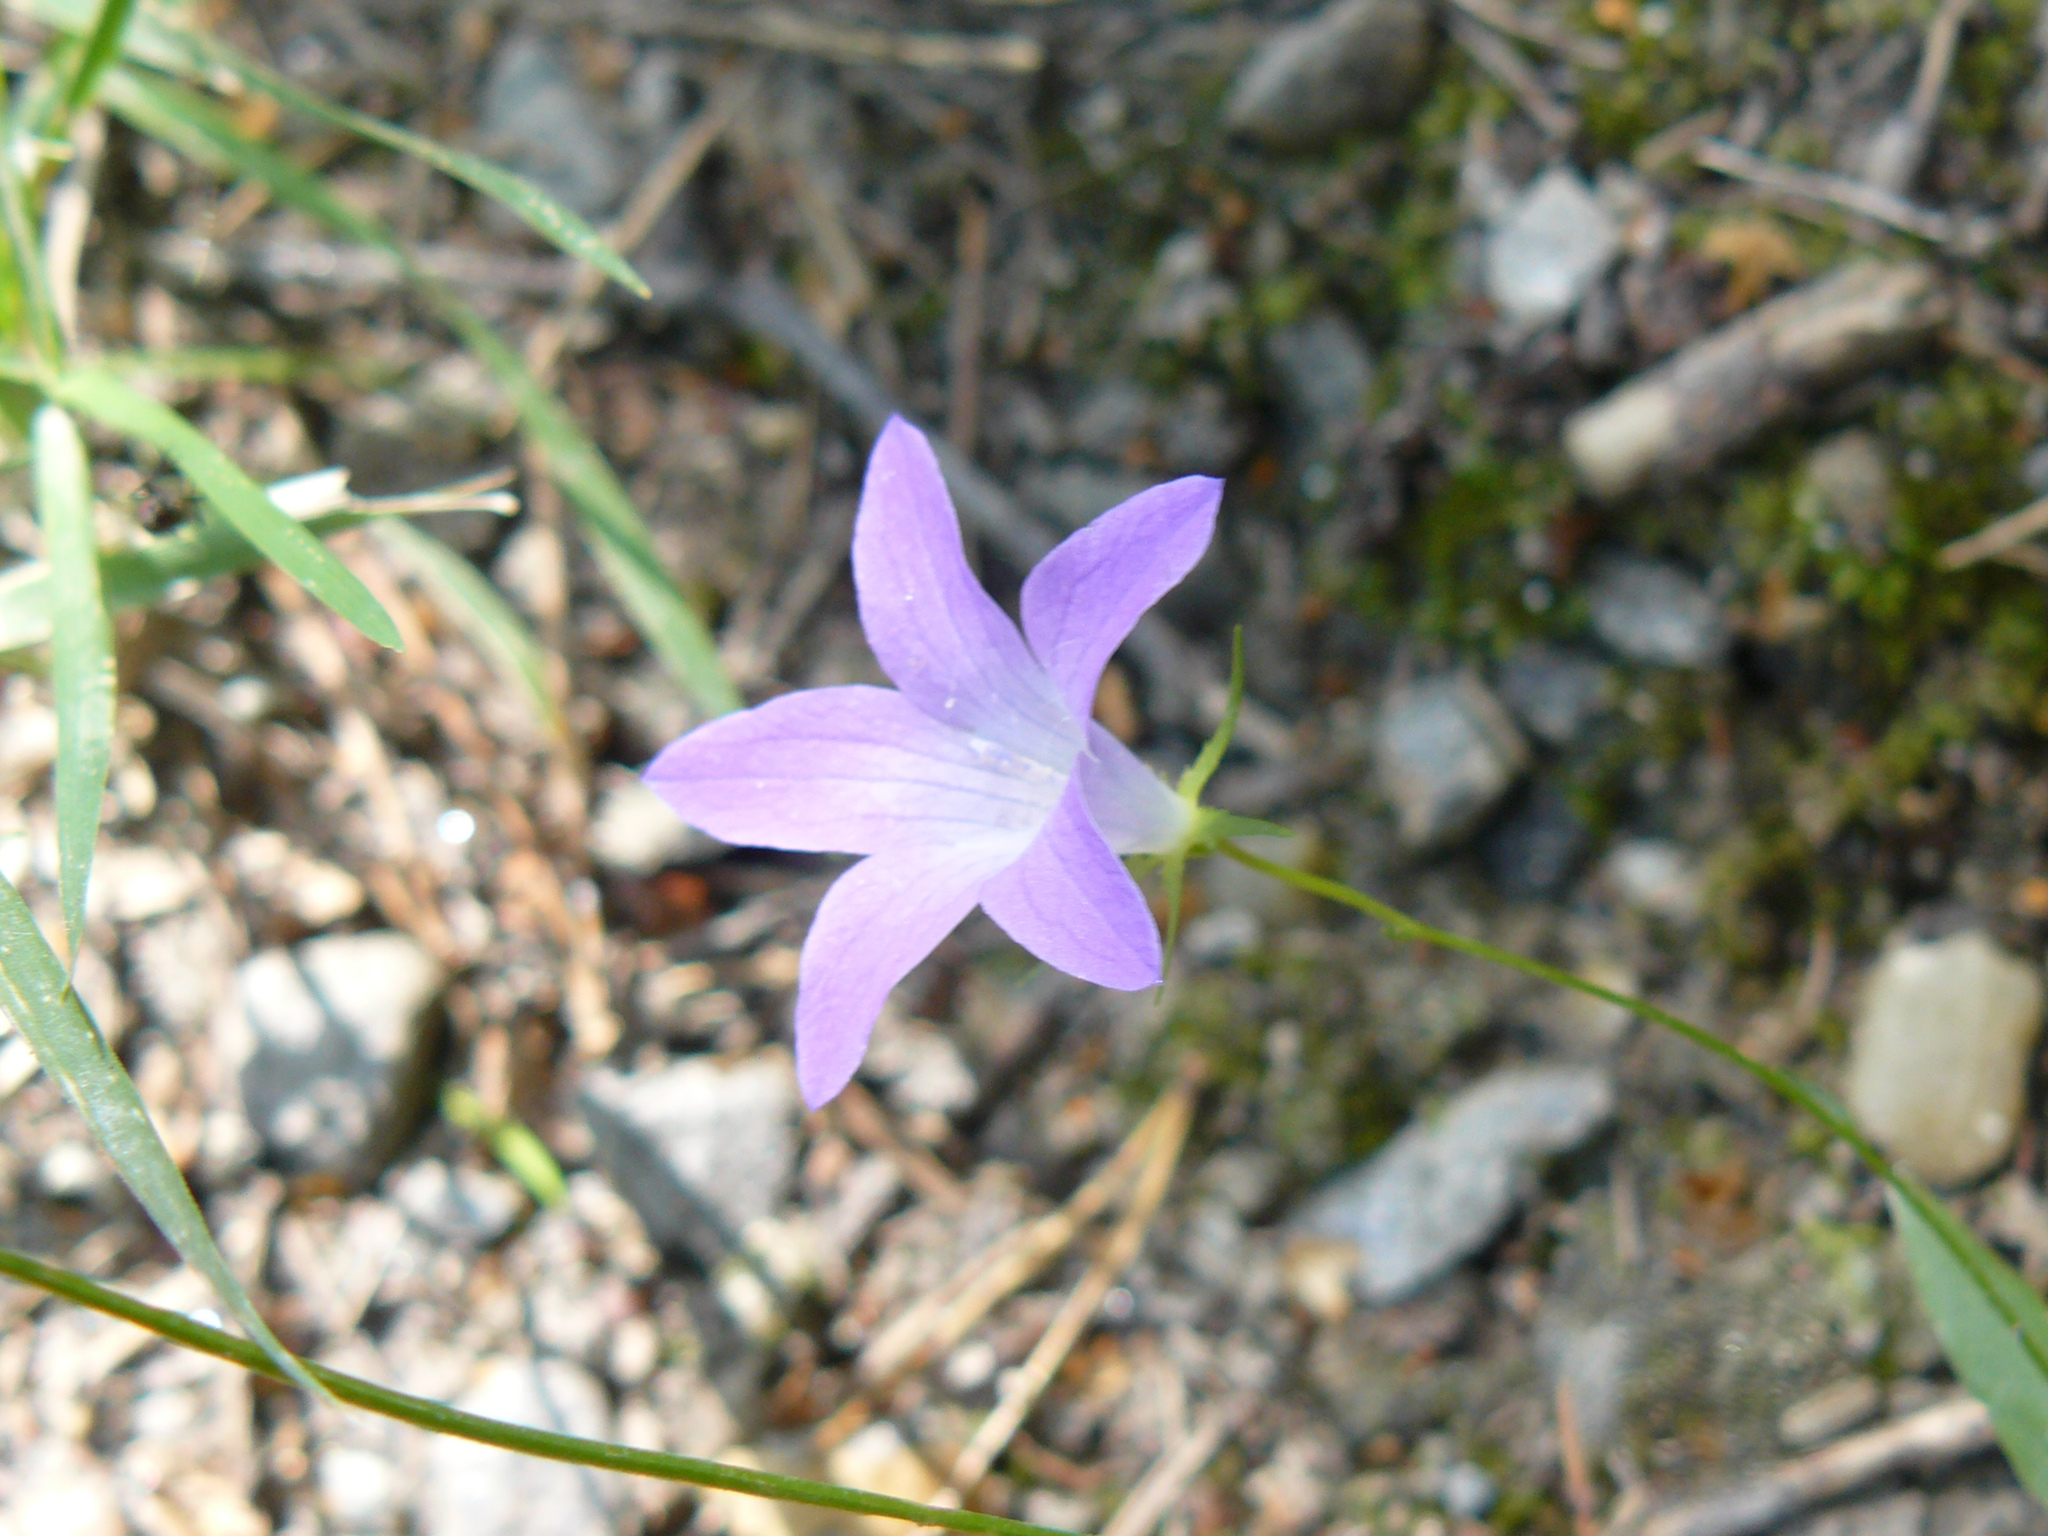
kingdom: Plantae
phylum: Tracheophyta
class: Magnoliopsida
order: Asterales
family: Campanulaceae
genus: Campanula
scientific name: Campanula patula
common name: Spreading bellflower
